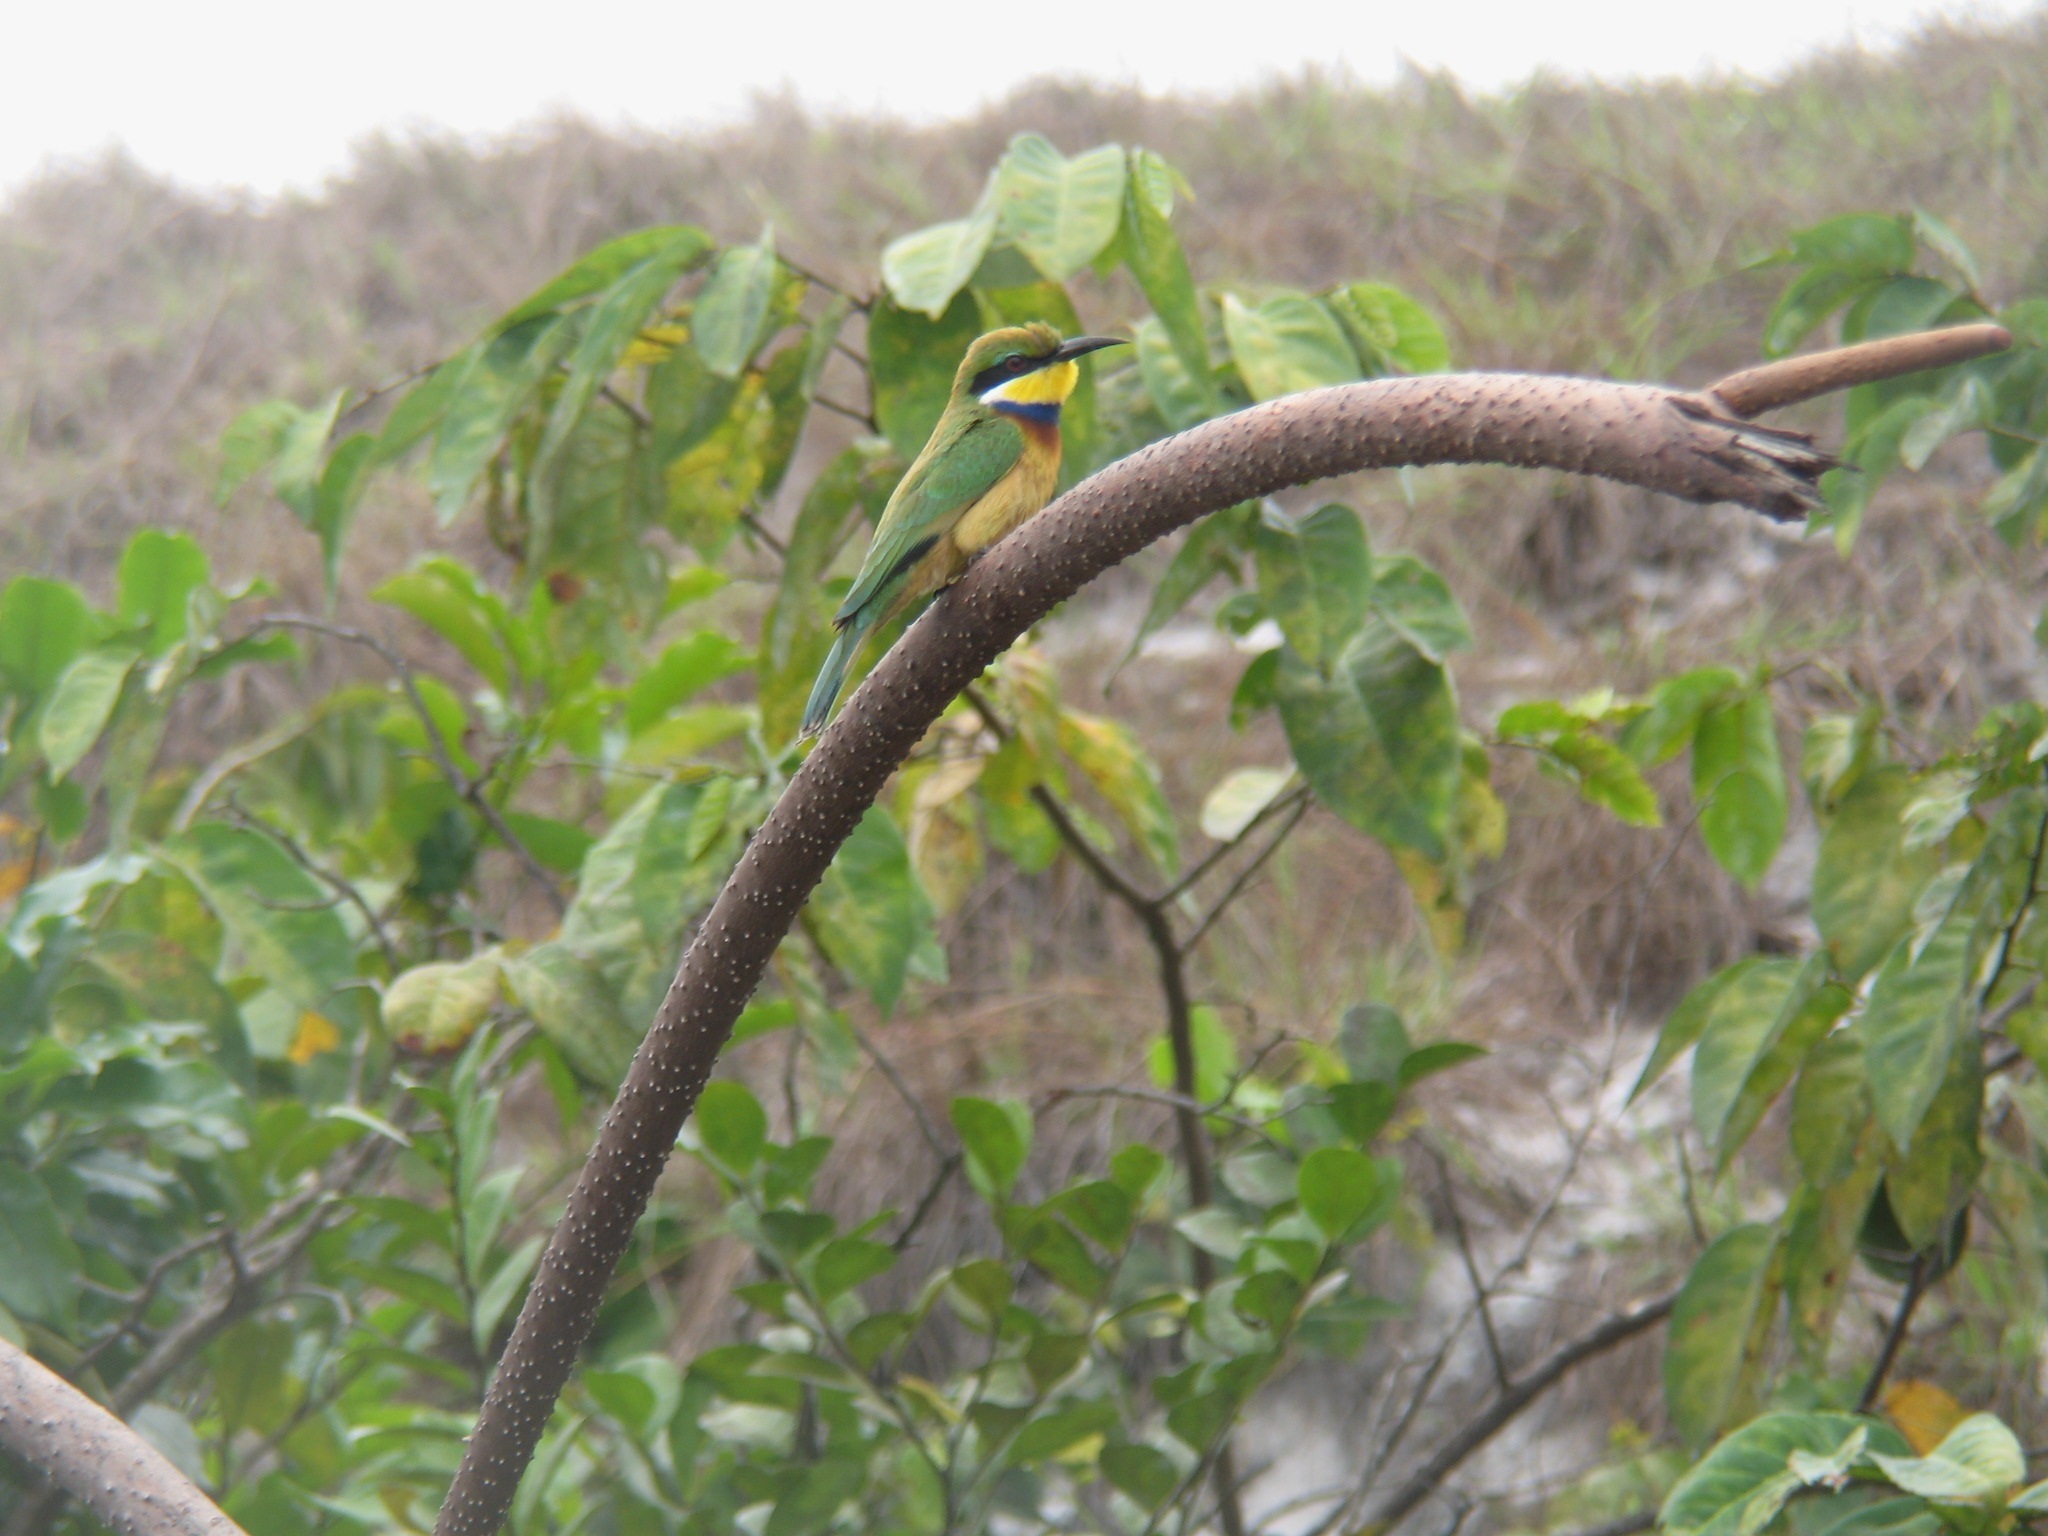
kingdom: Animalia
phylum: Chordata
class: Aves
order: Coraciiformes
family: Meropidae
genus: Merops
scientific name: Merops variegatus
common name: Blue-breasted bee-eater
